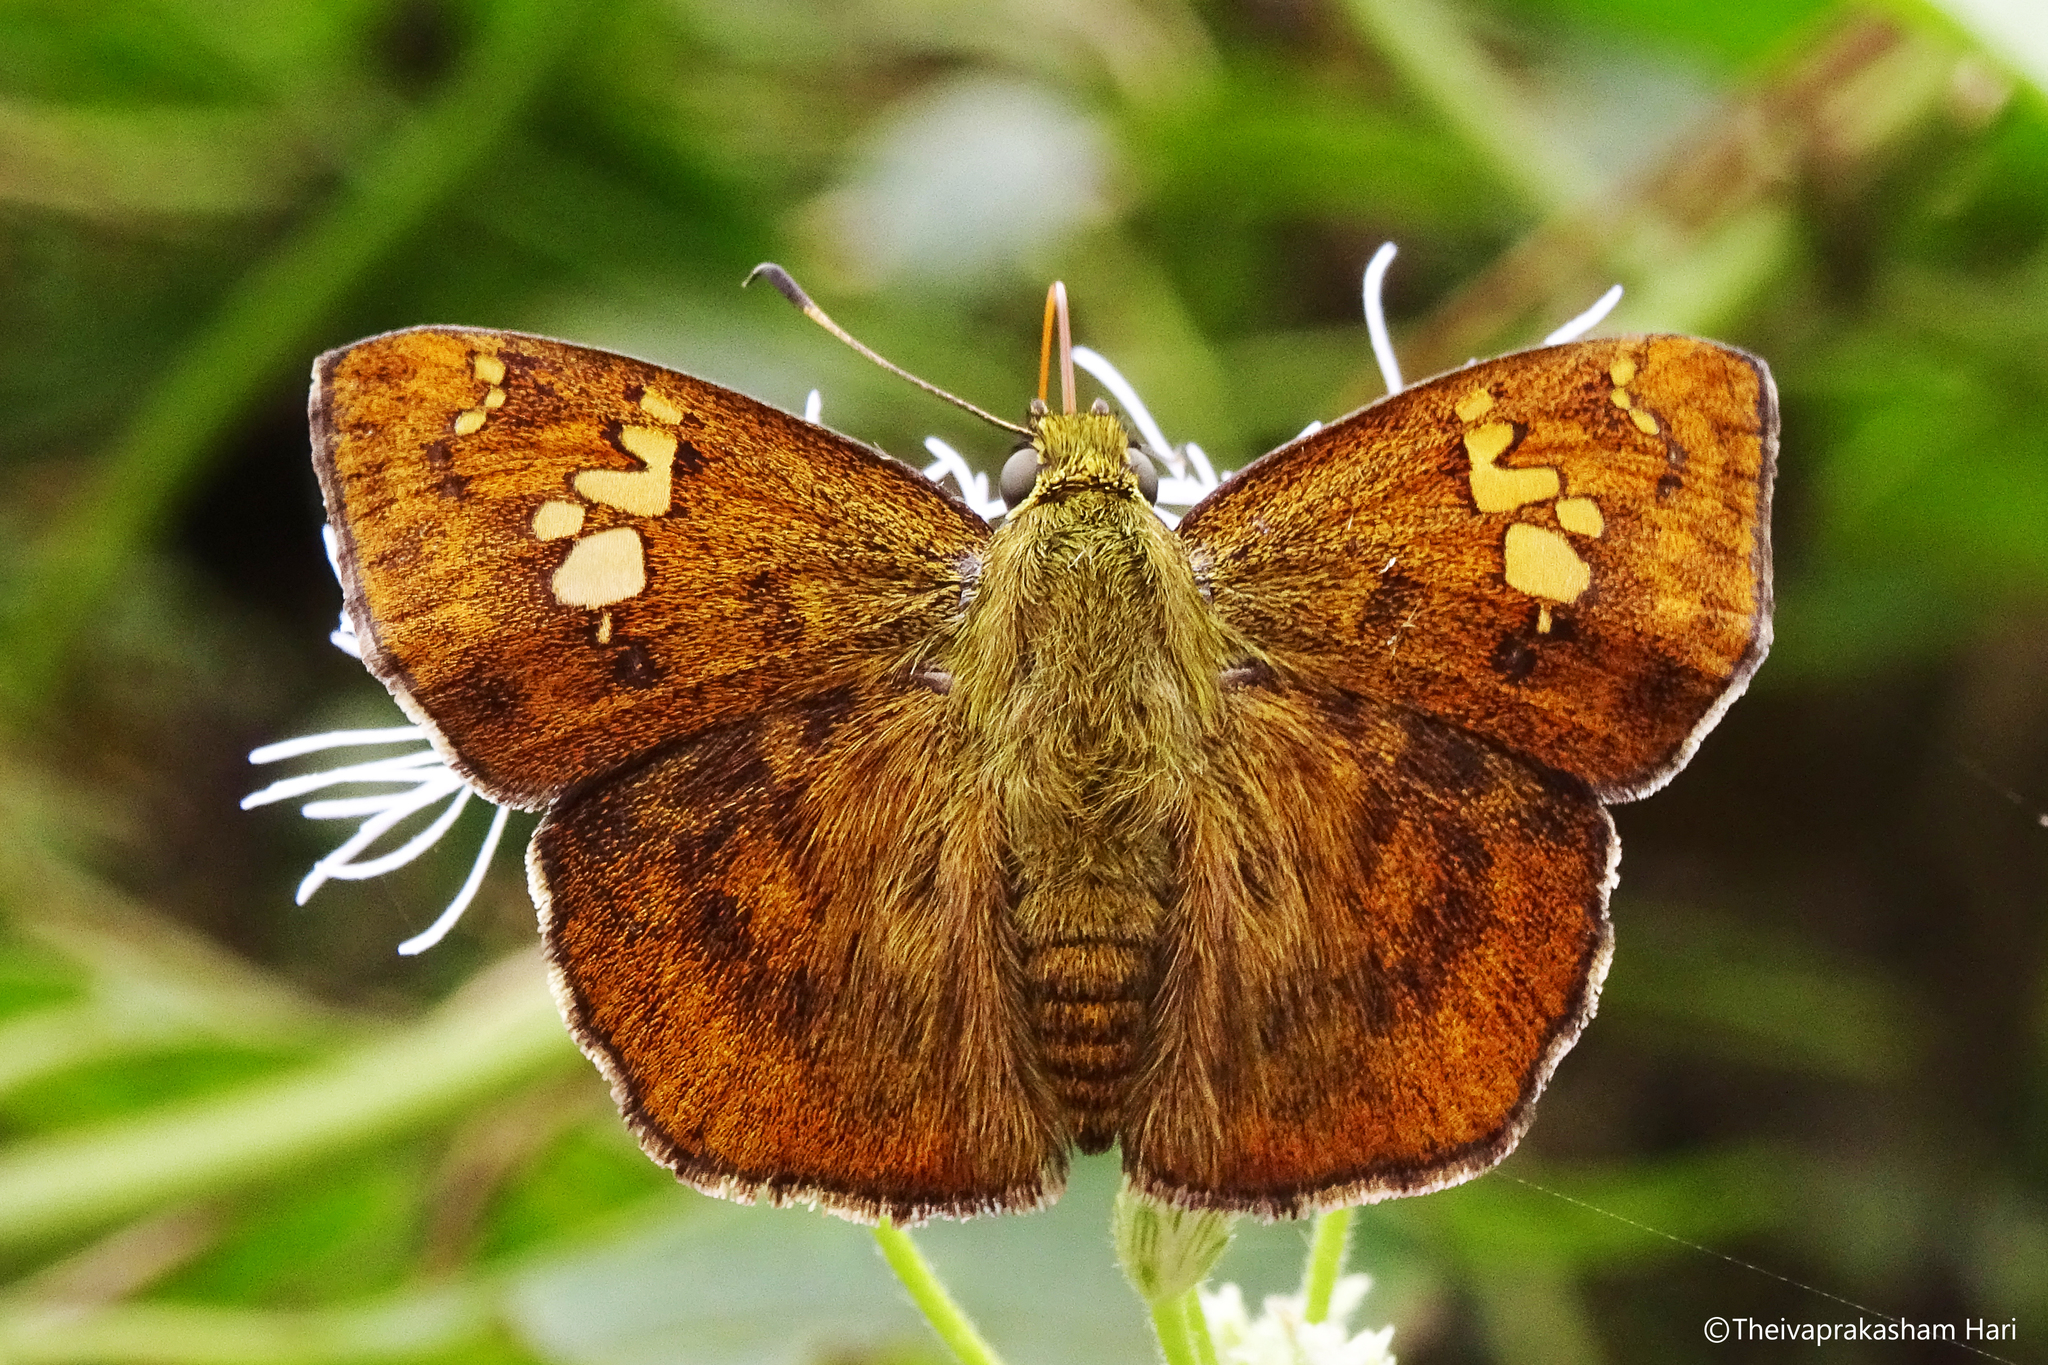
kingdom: Animalia
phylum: Arthropoda
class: Insecta
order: Lepidoptera
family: Hesperiidae
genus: Pseudocoladenia
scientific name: Pseudocoladenia dan
